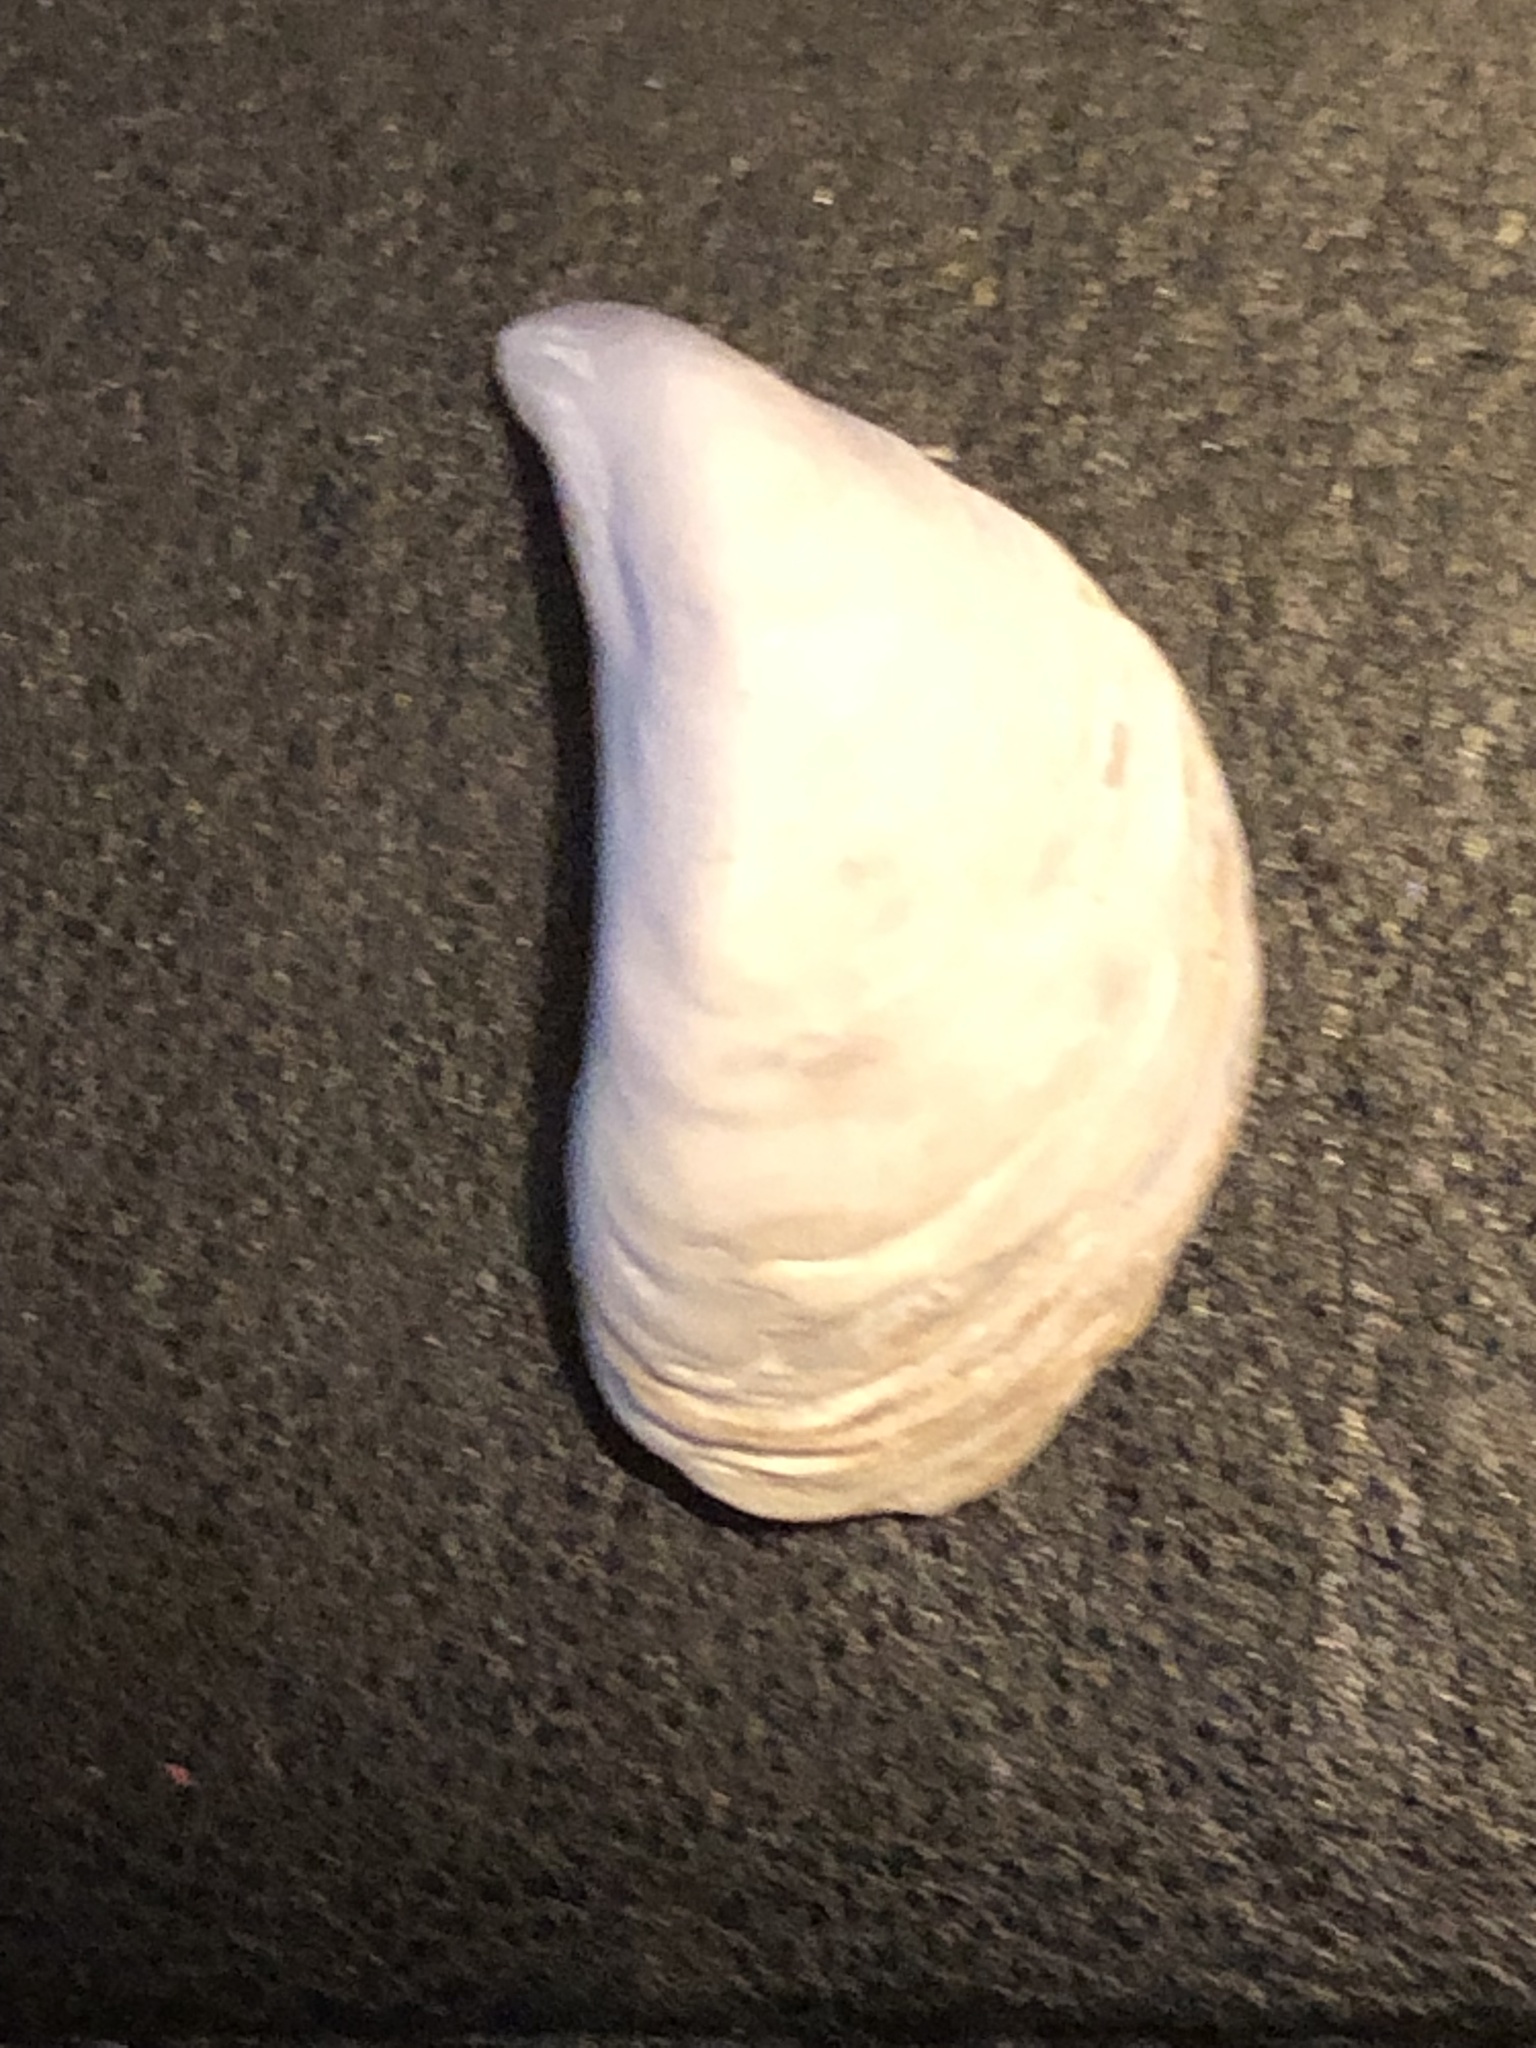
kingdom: Animalia
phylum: Mollusca
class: Bivalvia
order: Myida
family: Dreissenidae
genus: Dreissena
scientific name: Dreissena bugensis
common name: Quagga mussel
